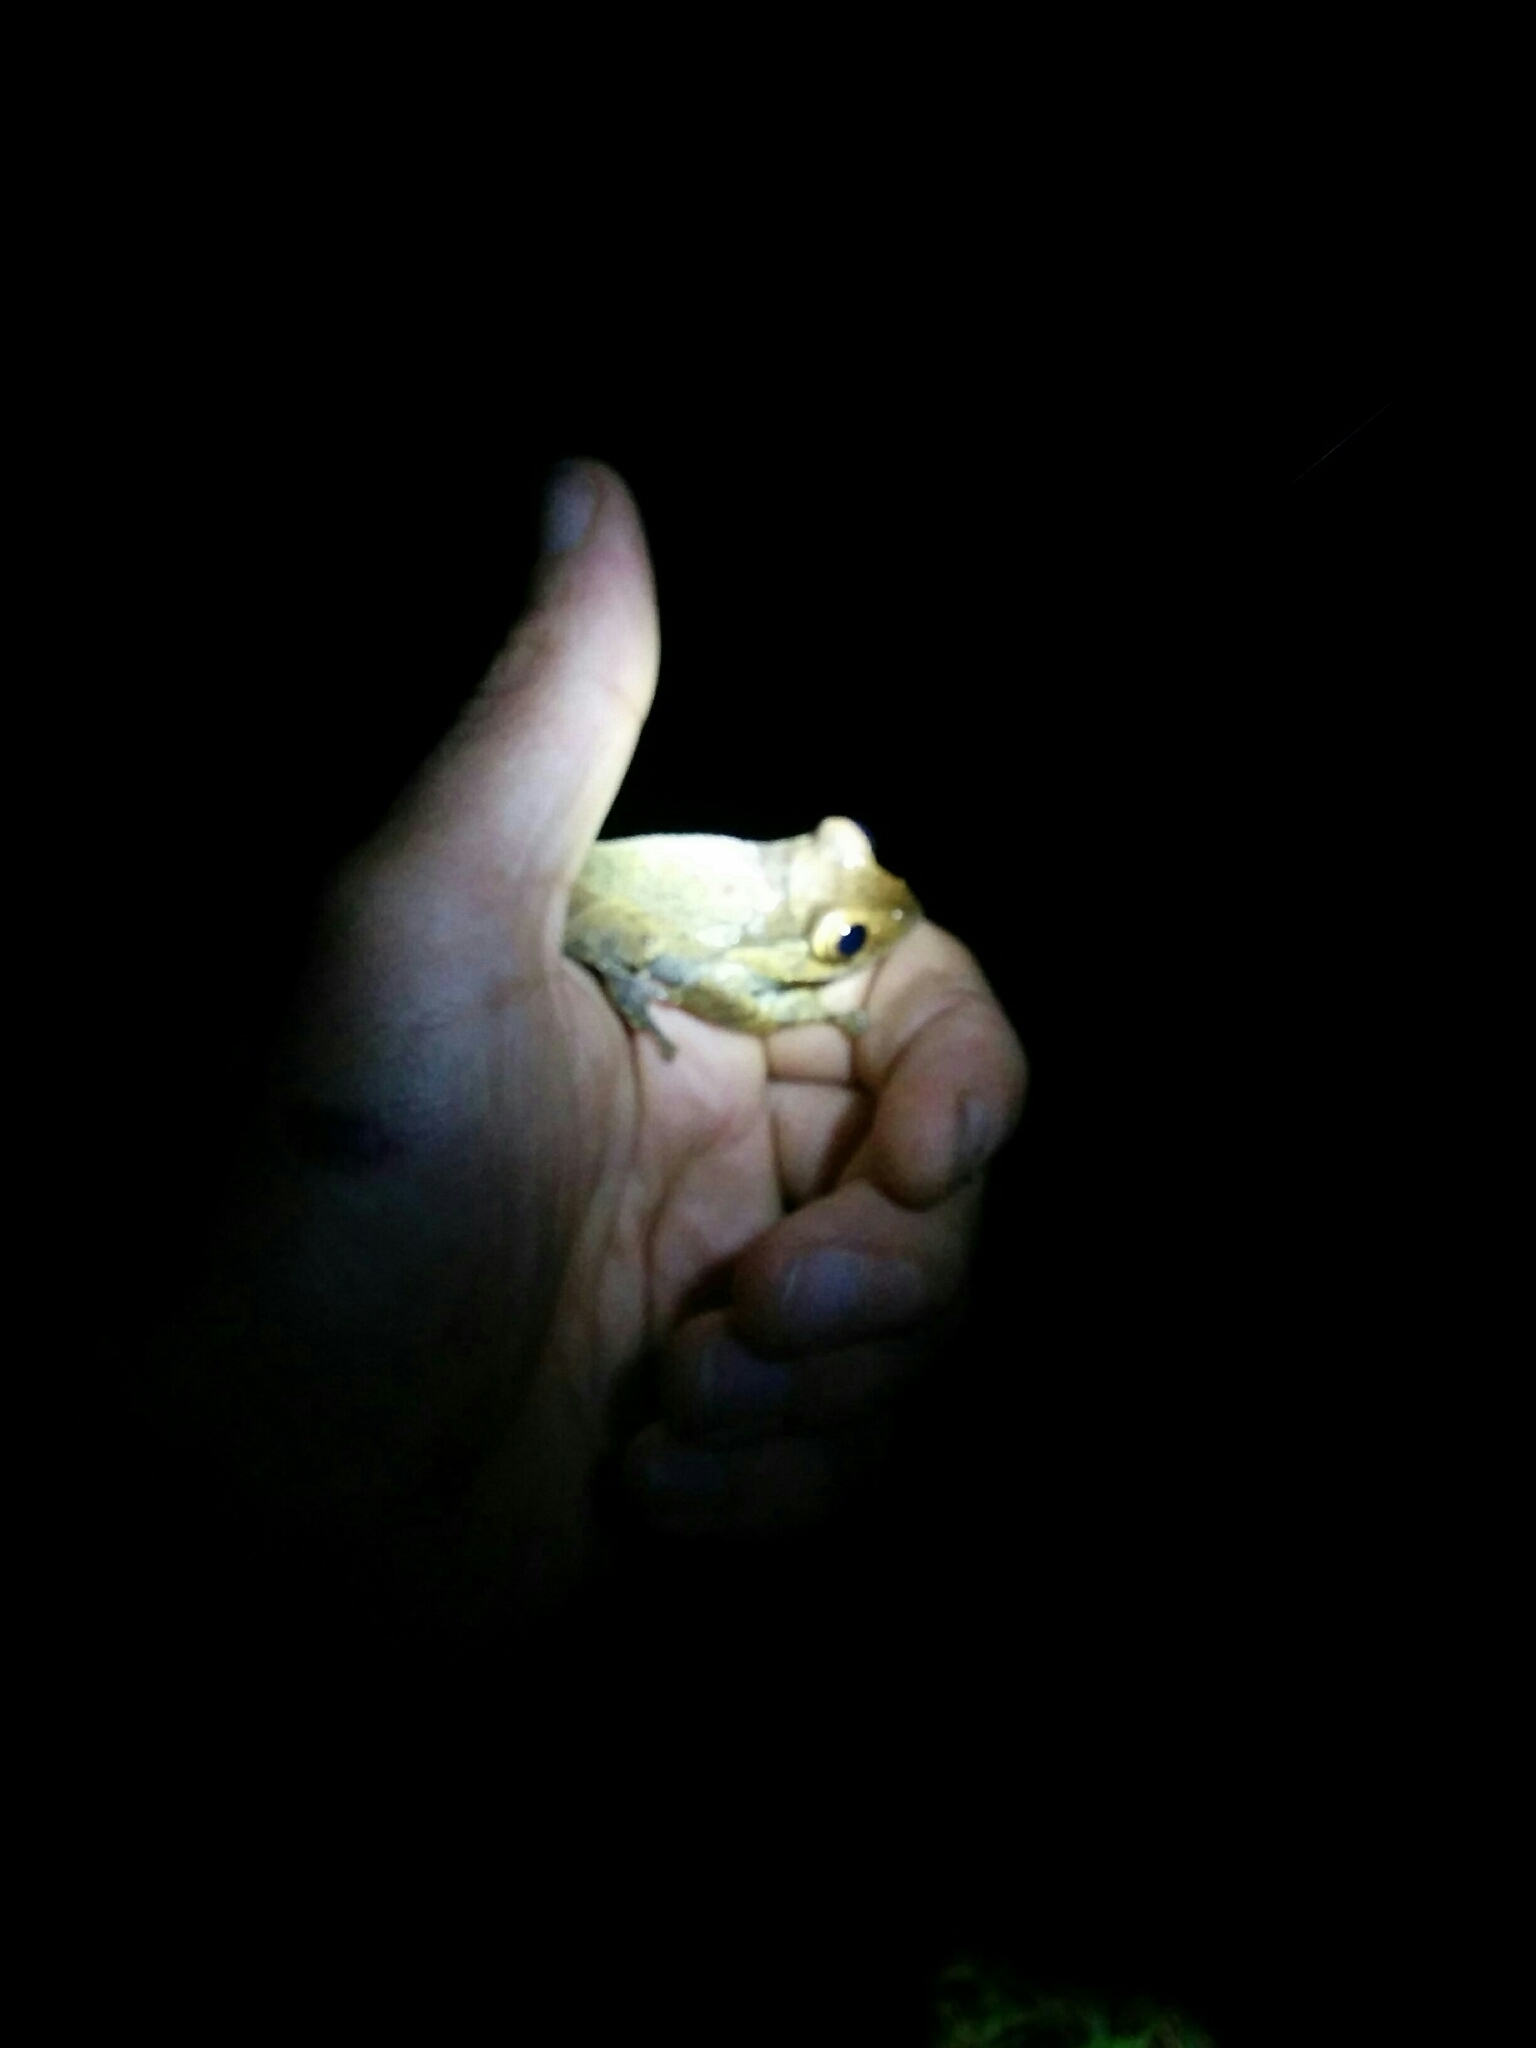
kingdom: Animalia
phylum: Chordata
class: Amphibia
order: Anura
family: Mantellidae
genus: Boophis
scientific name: Boophis madagascariensis
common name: Madagascar bright-eyed frog
